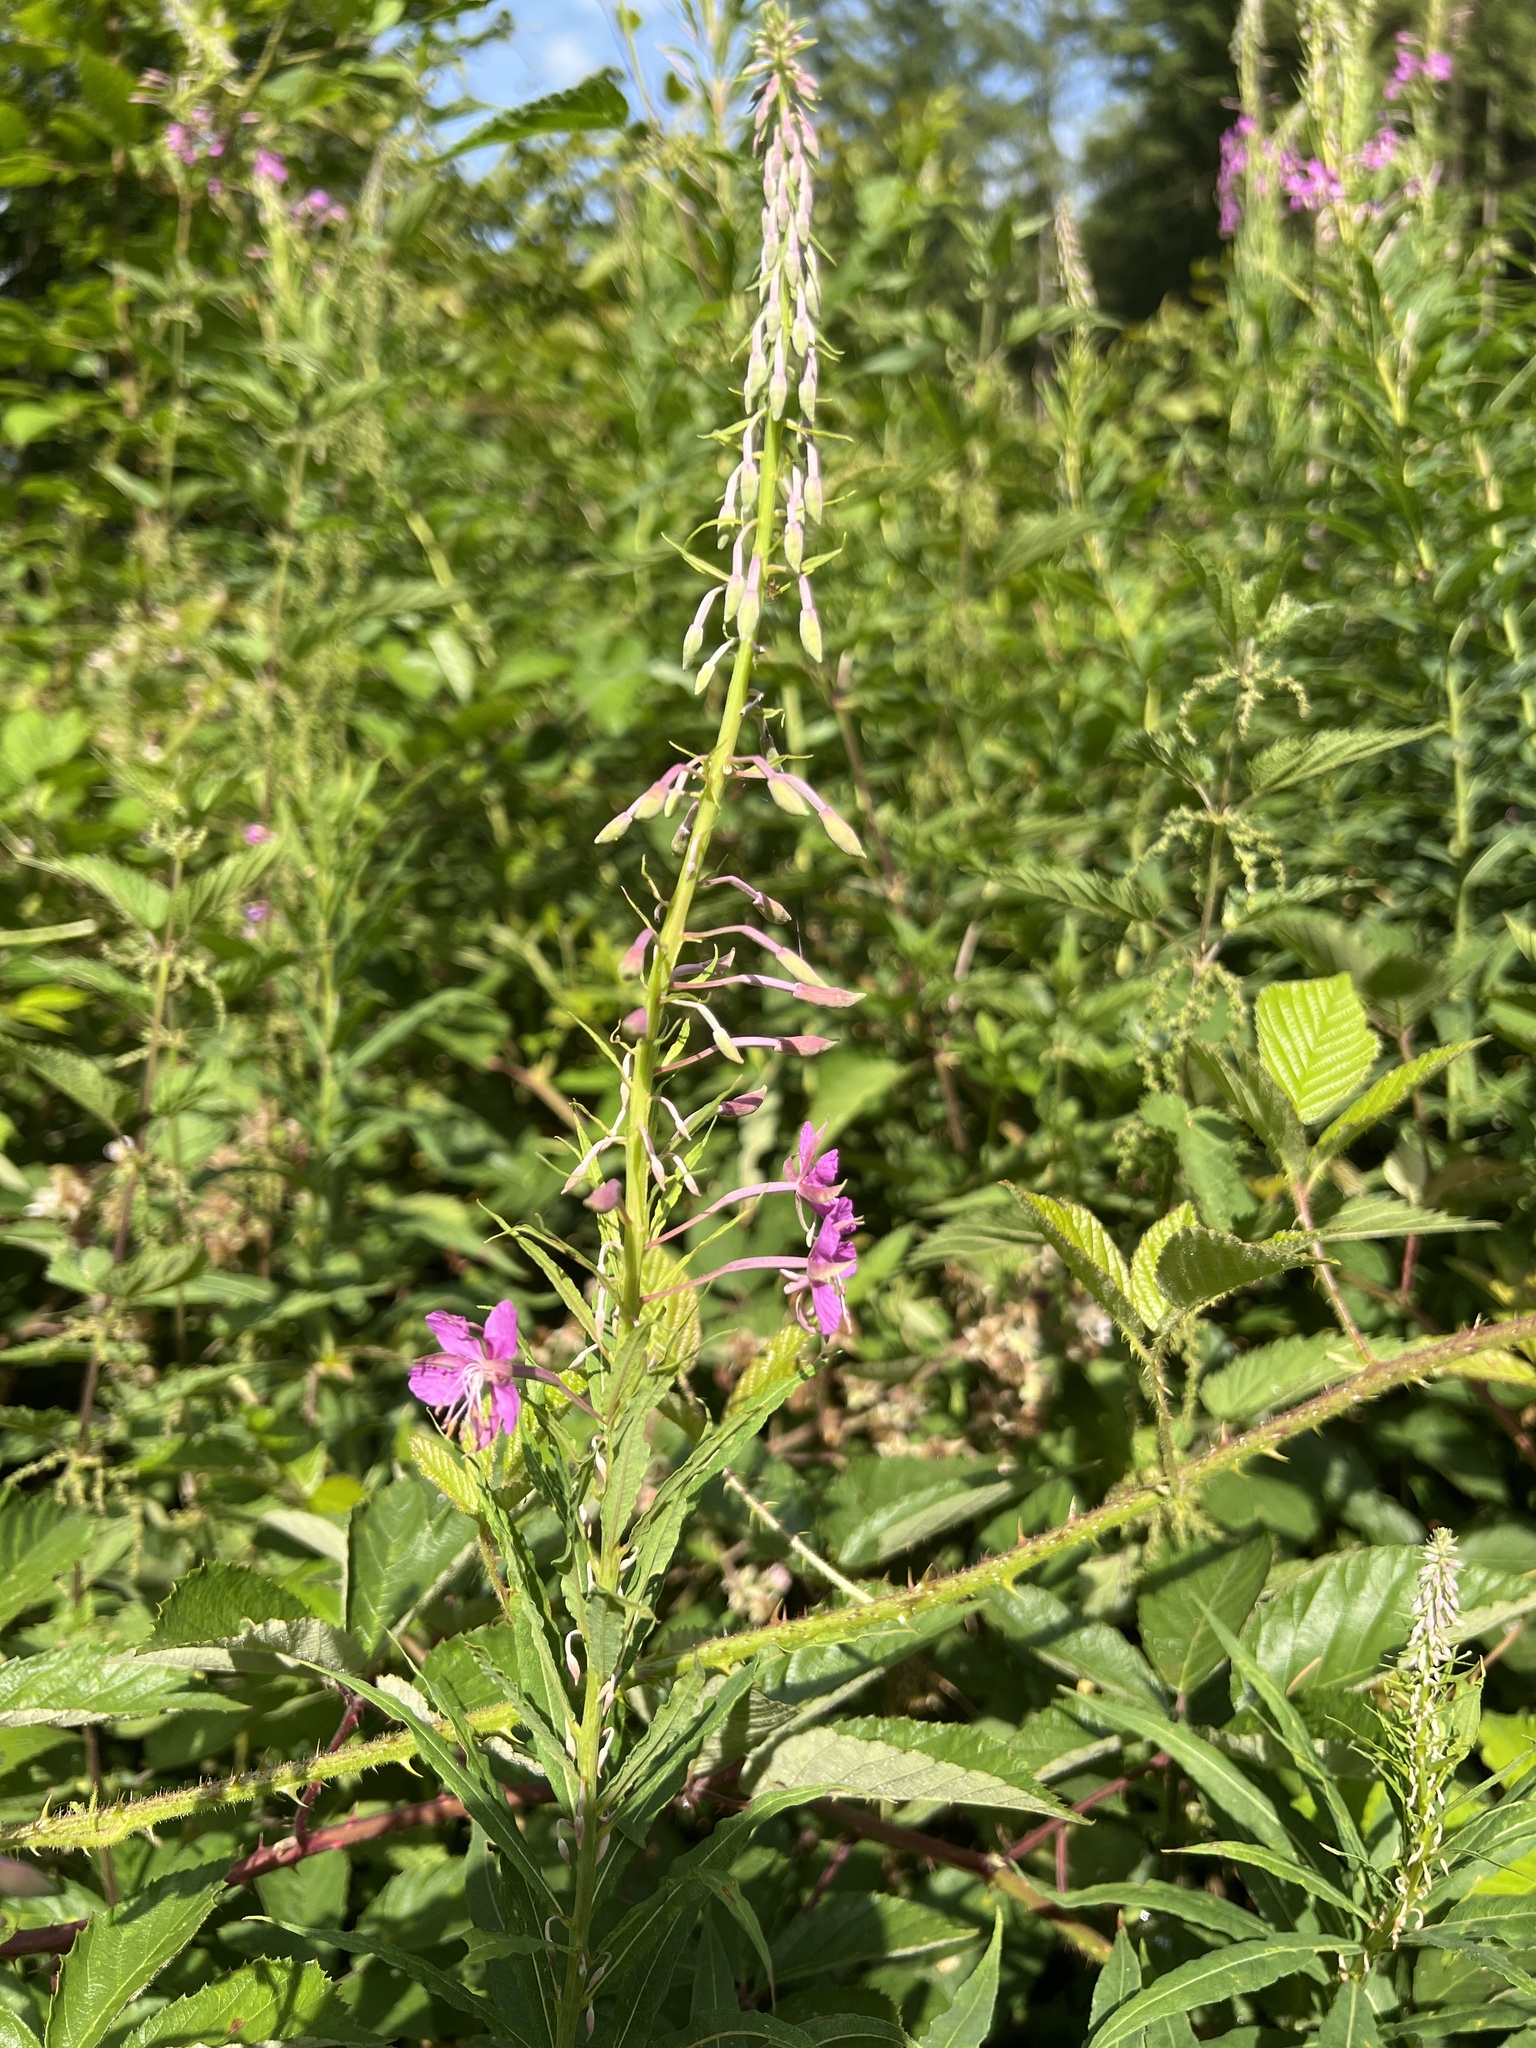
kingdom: Plantae
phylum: Tracheophyta
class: Magnoliopsida
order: Myrtales
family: Onagraceae
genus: Chamaenerion
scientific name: Chamaenerion angustifolium
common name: Fireweed
